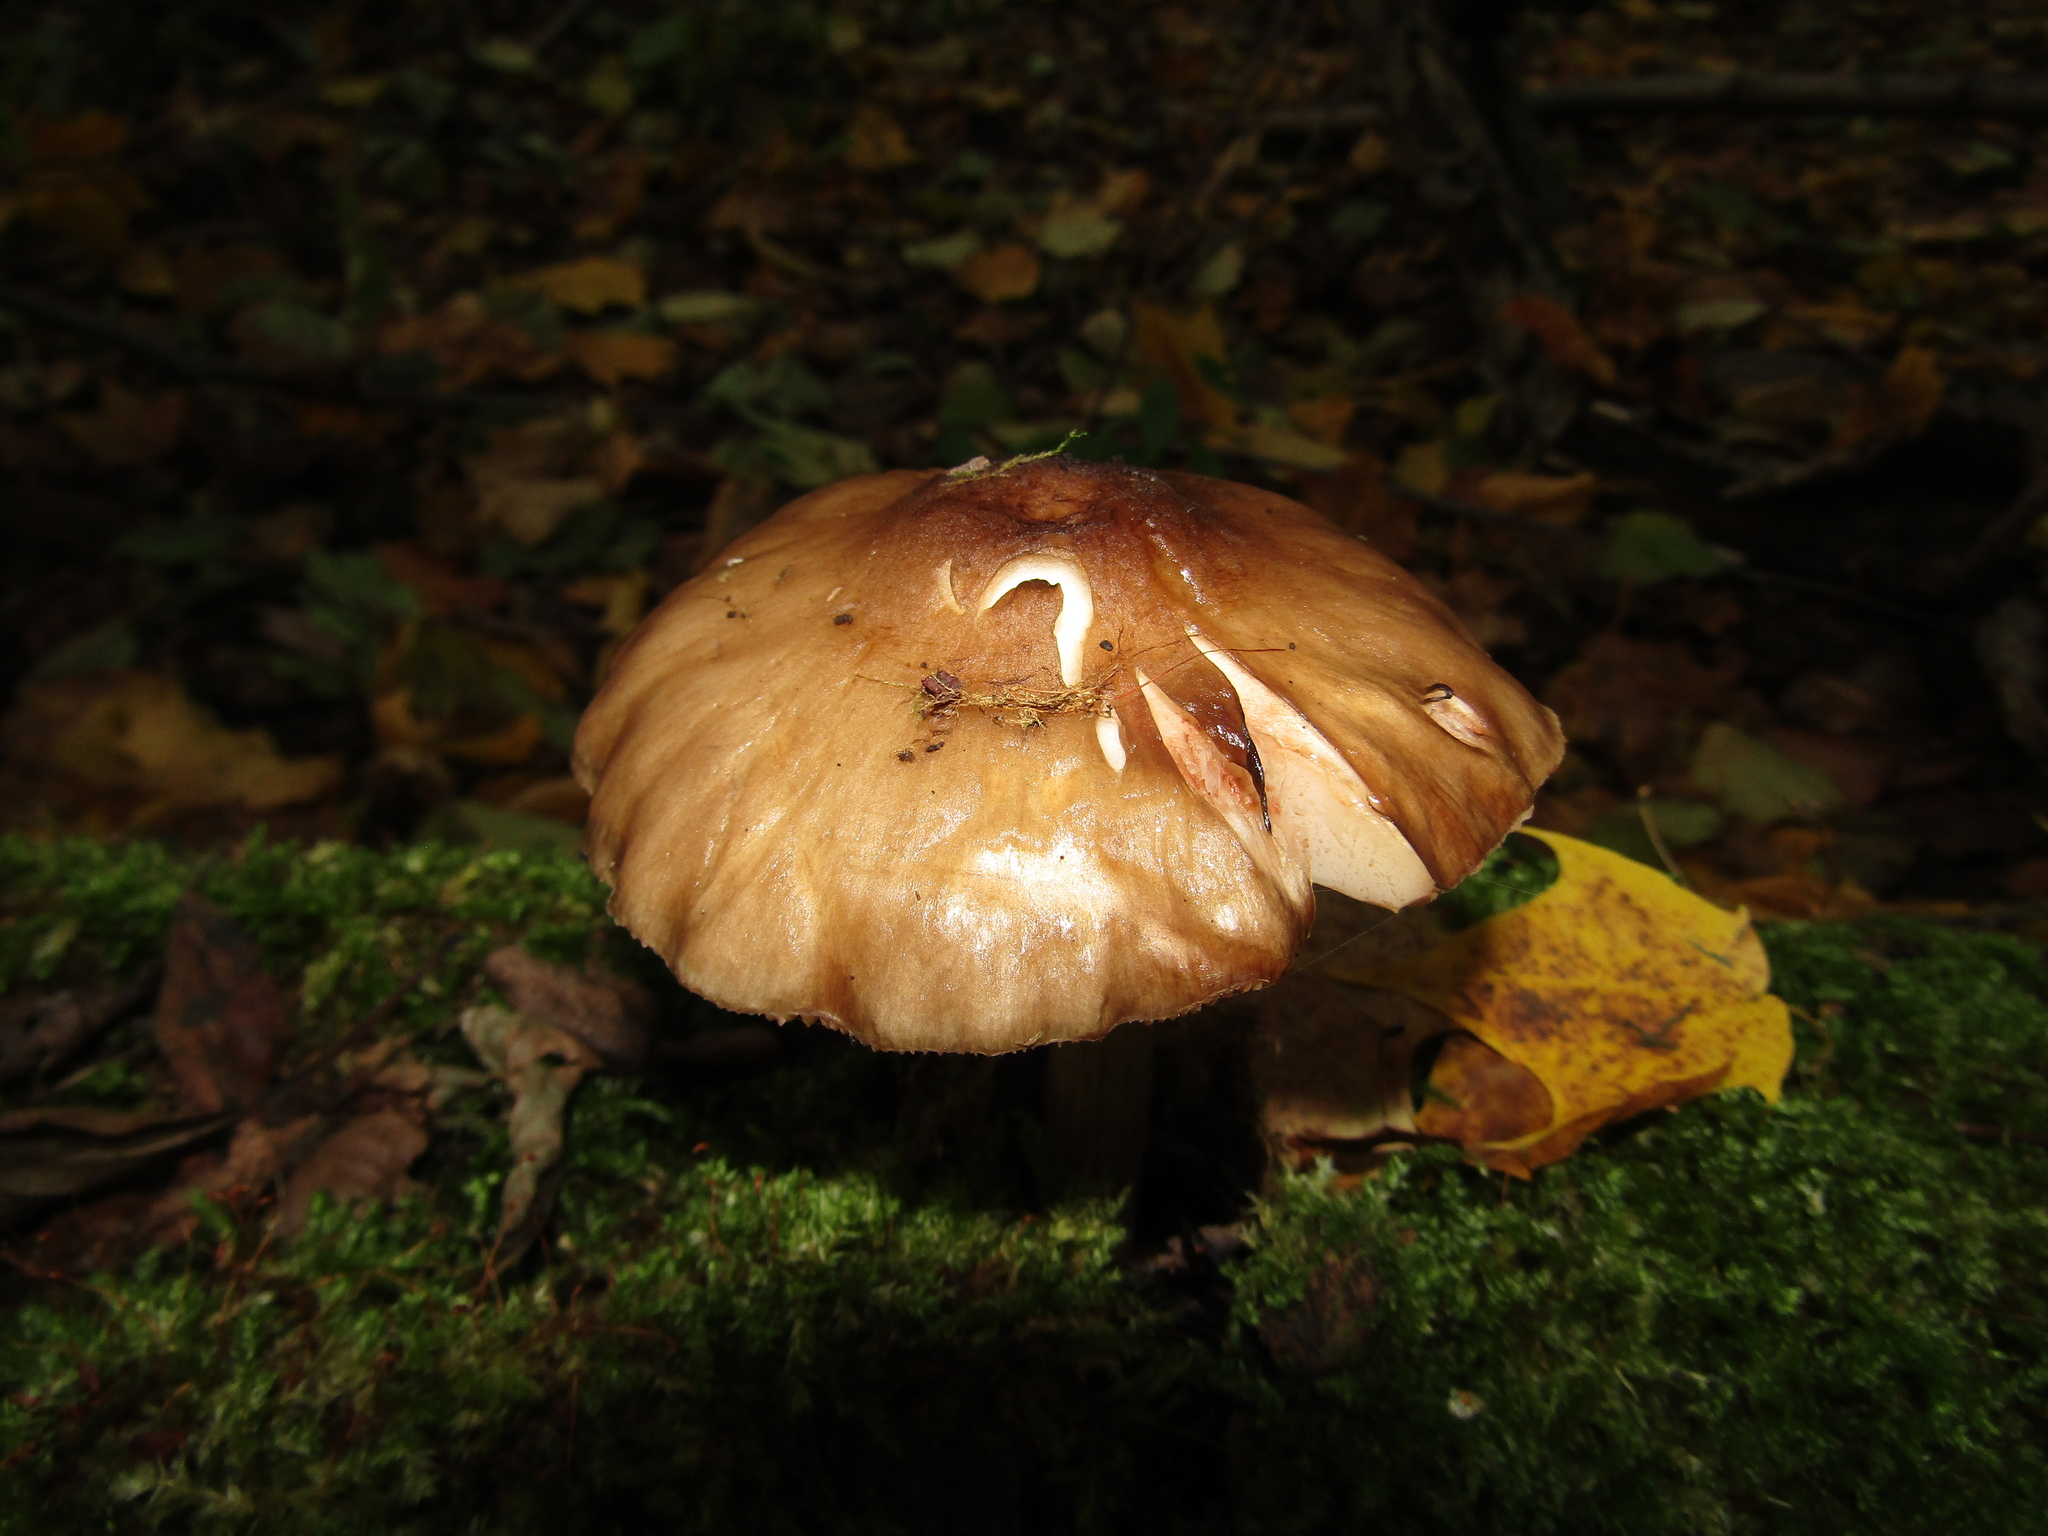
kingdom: Fungi
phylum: Basidiomycota
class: Agaricomycetes
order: Agaricales
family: Pluteaceae
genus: Pluteus
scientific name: Pluteus cervinus
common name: Deer shield
